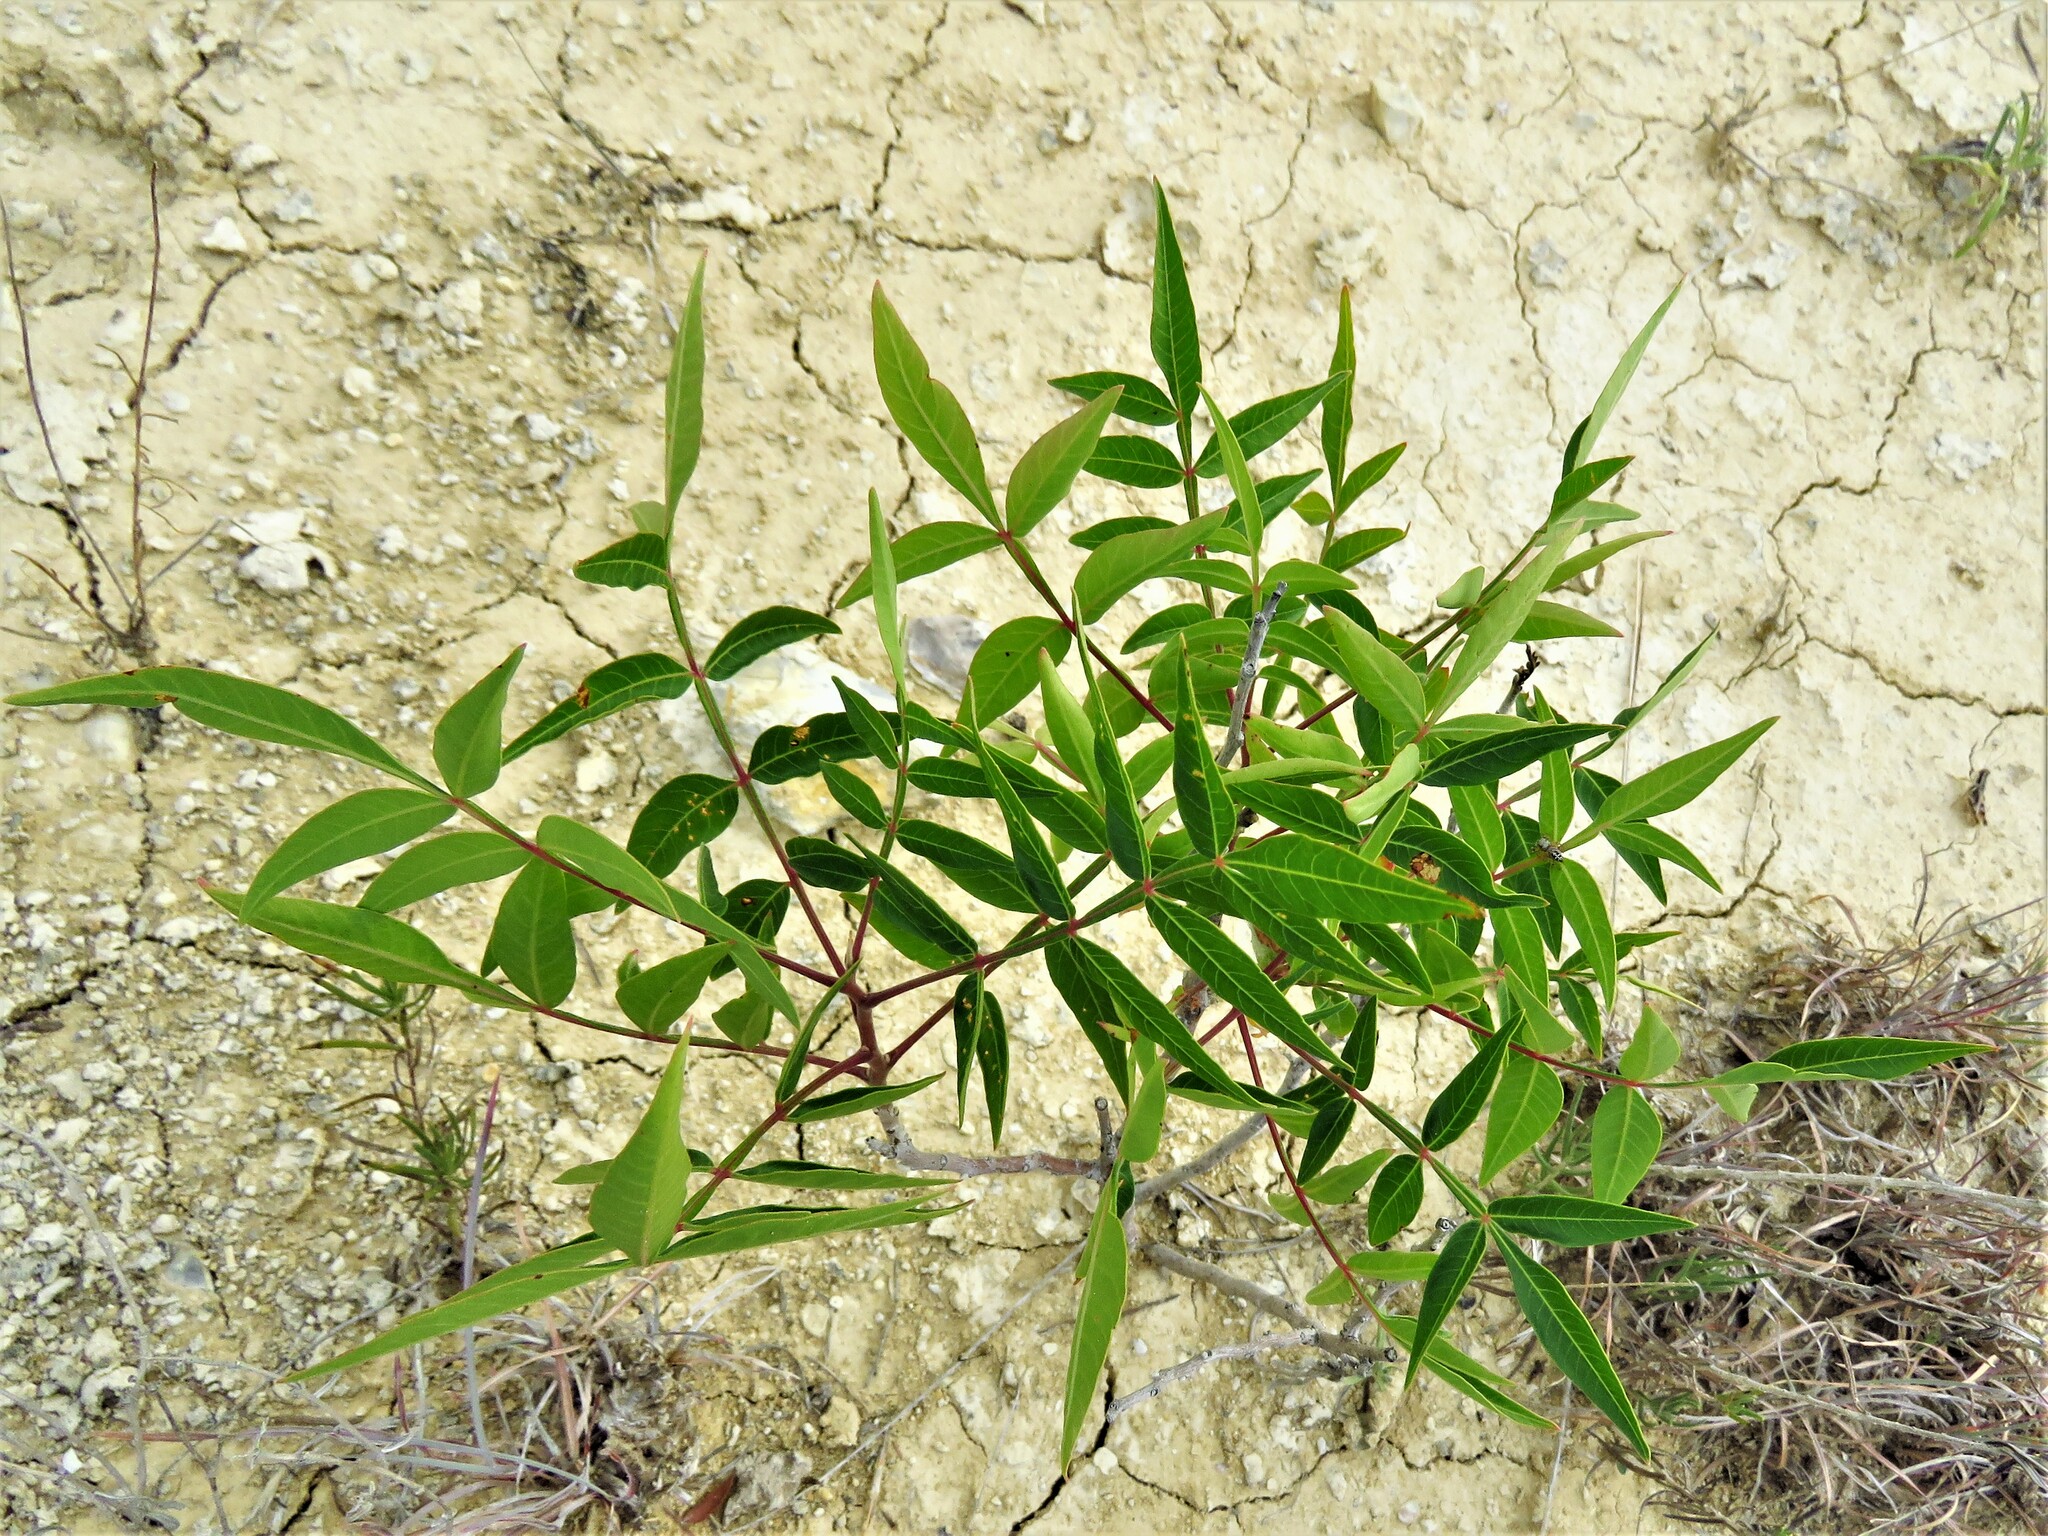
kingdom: Plantae
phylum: Tracheophyta
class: Magnoliopsida
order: Sapindales
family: Anacardiaceae
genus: Rhus
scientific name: Rhus lanceolata
